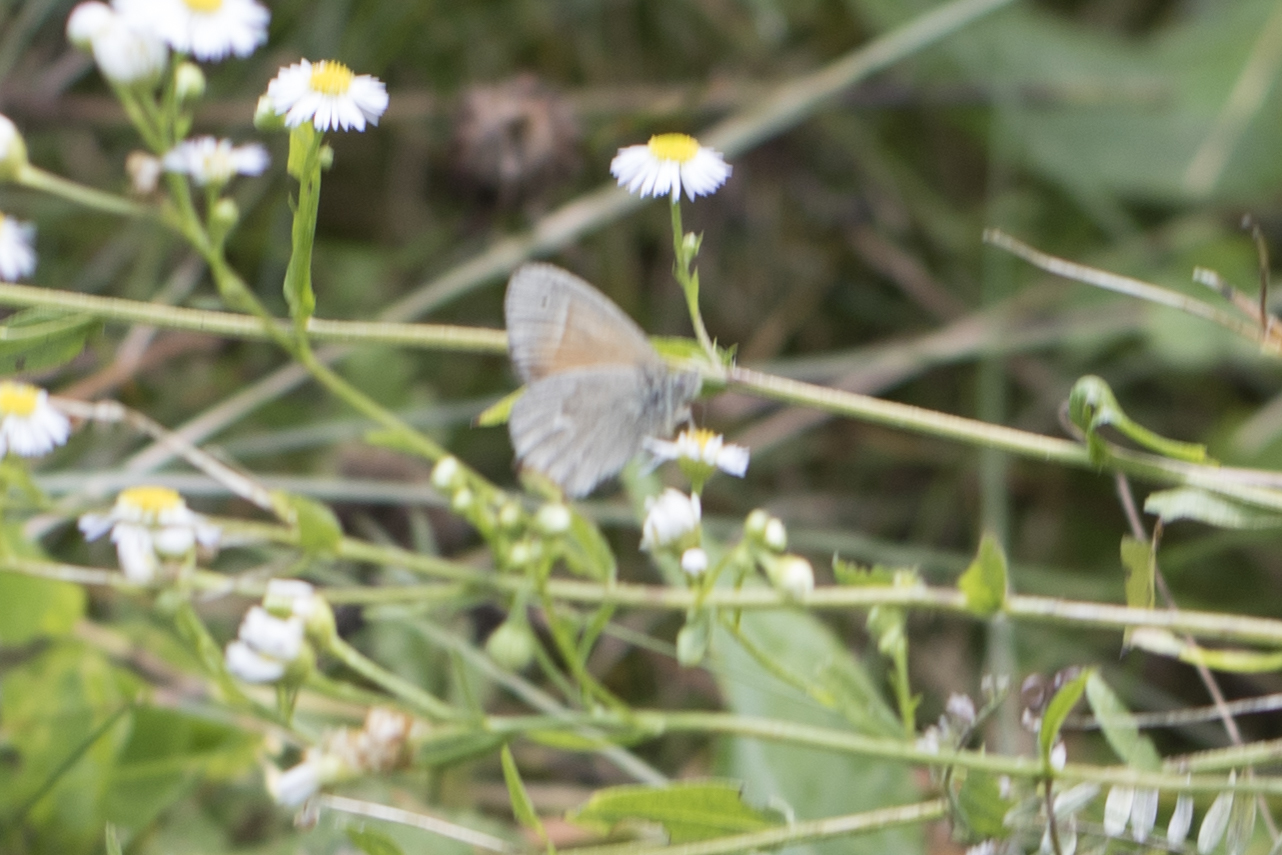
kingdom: Animalia
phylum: Arthropoda
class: Insecta
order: Lepidoptera
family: Nymphalidae
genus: Coenonympha
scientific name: Coenonympha california
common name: Common ringlet
